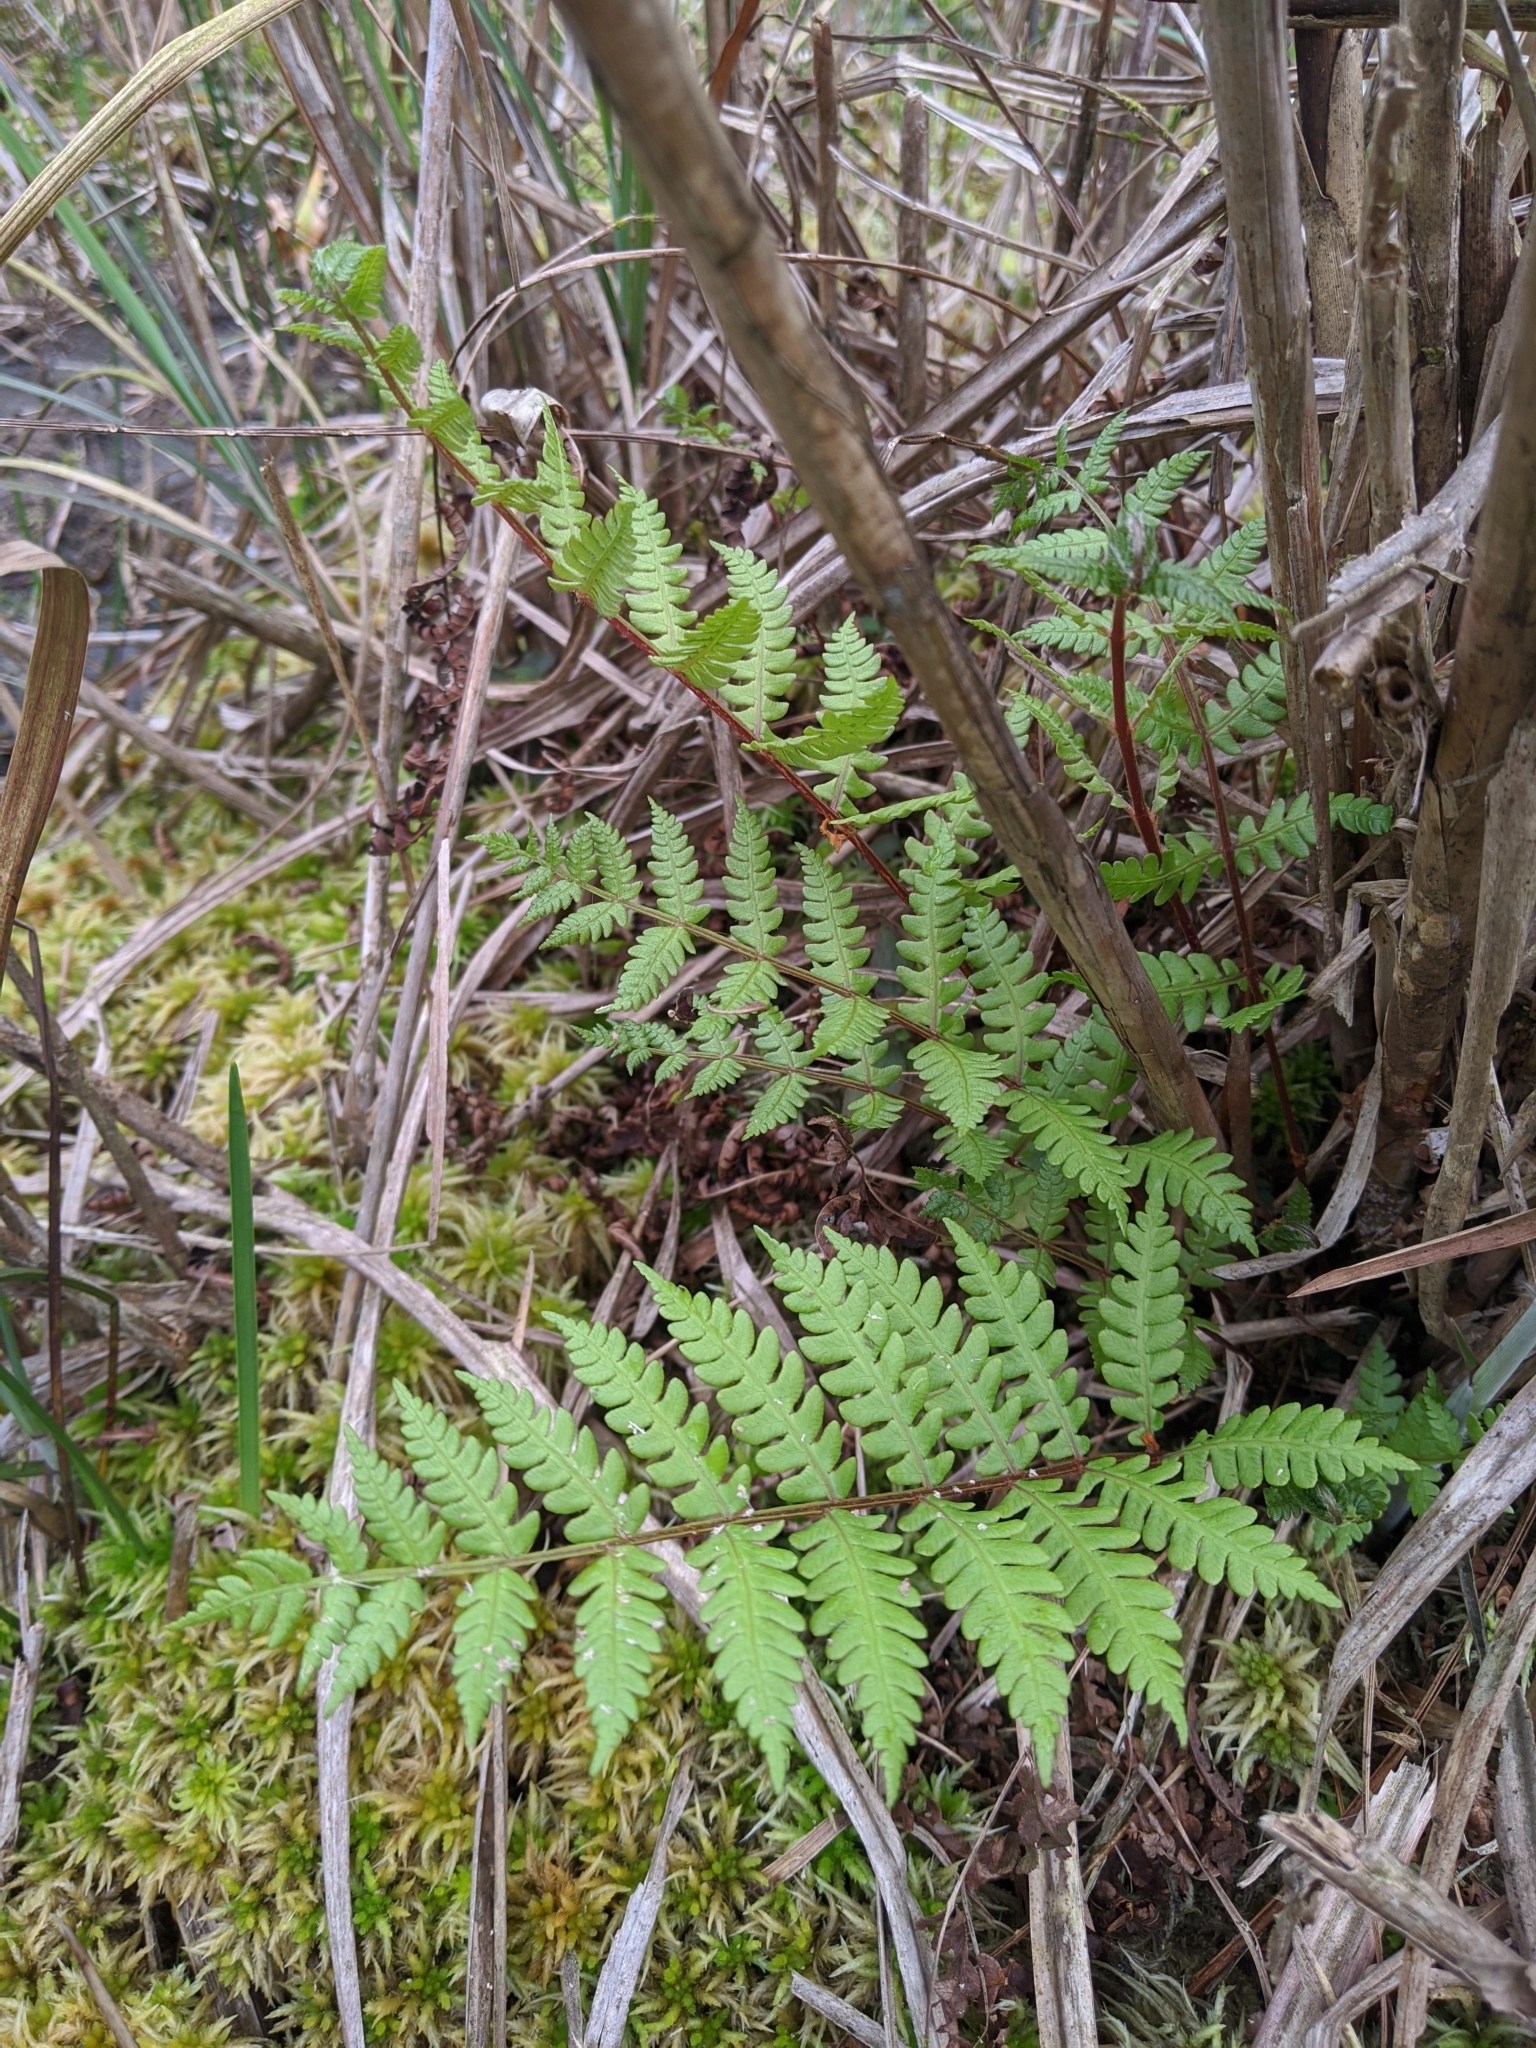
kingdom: Plantae
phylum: Tracheophyta
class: Polypodiopsida
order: Osmundales
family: Osmundaceae
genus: Osmundastrum
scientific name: Osmundastrum cinnamomeum
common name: Cinnamon fern
